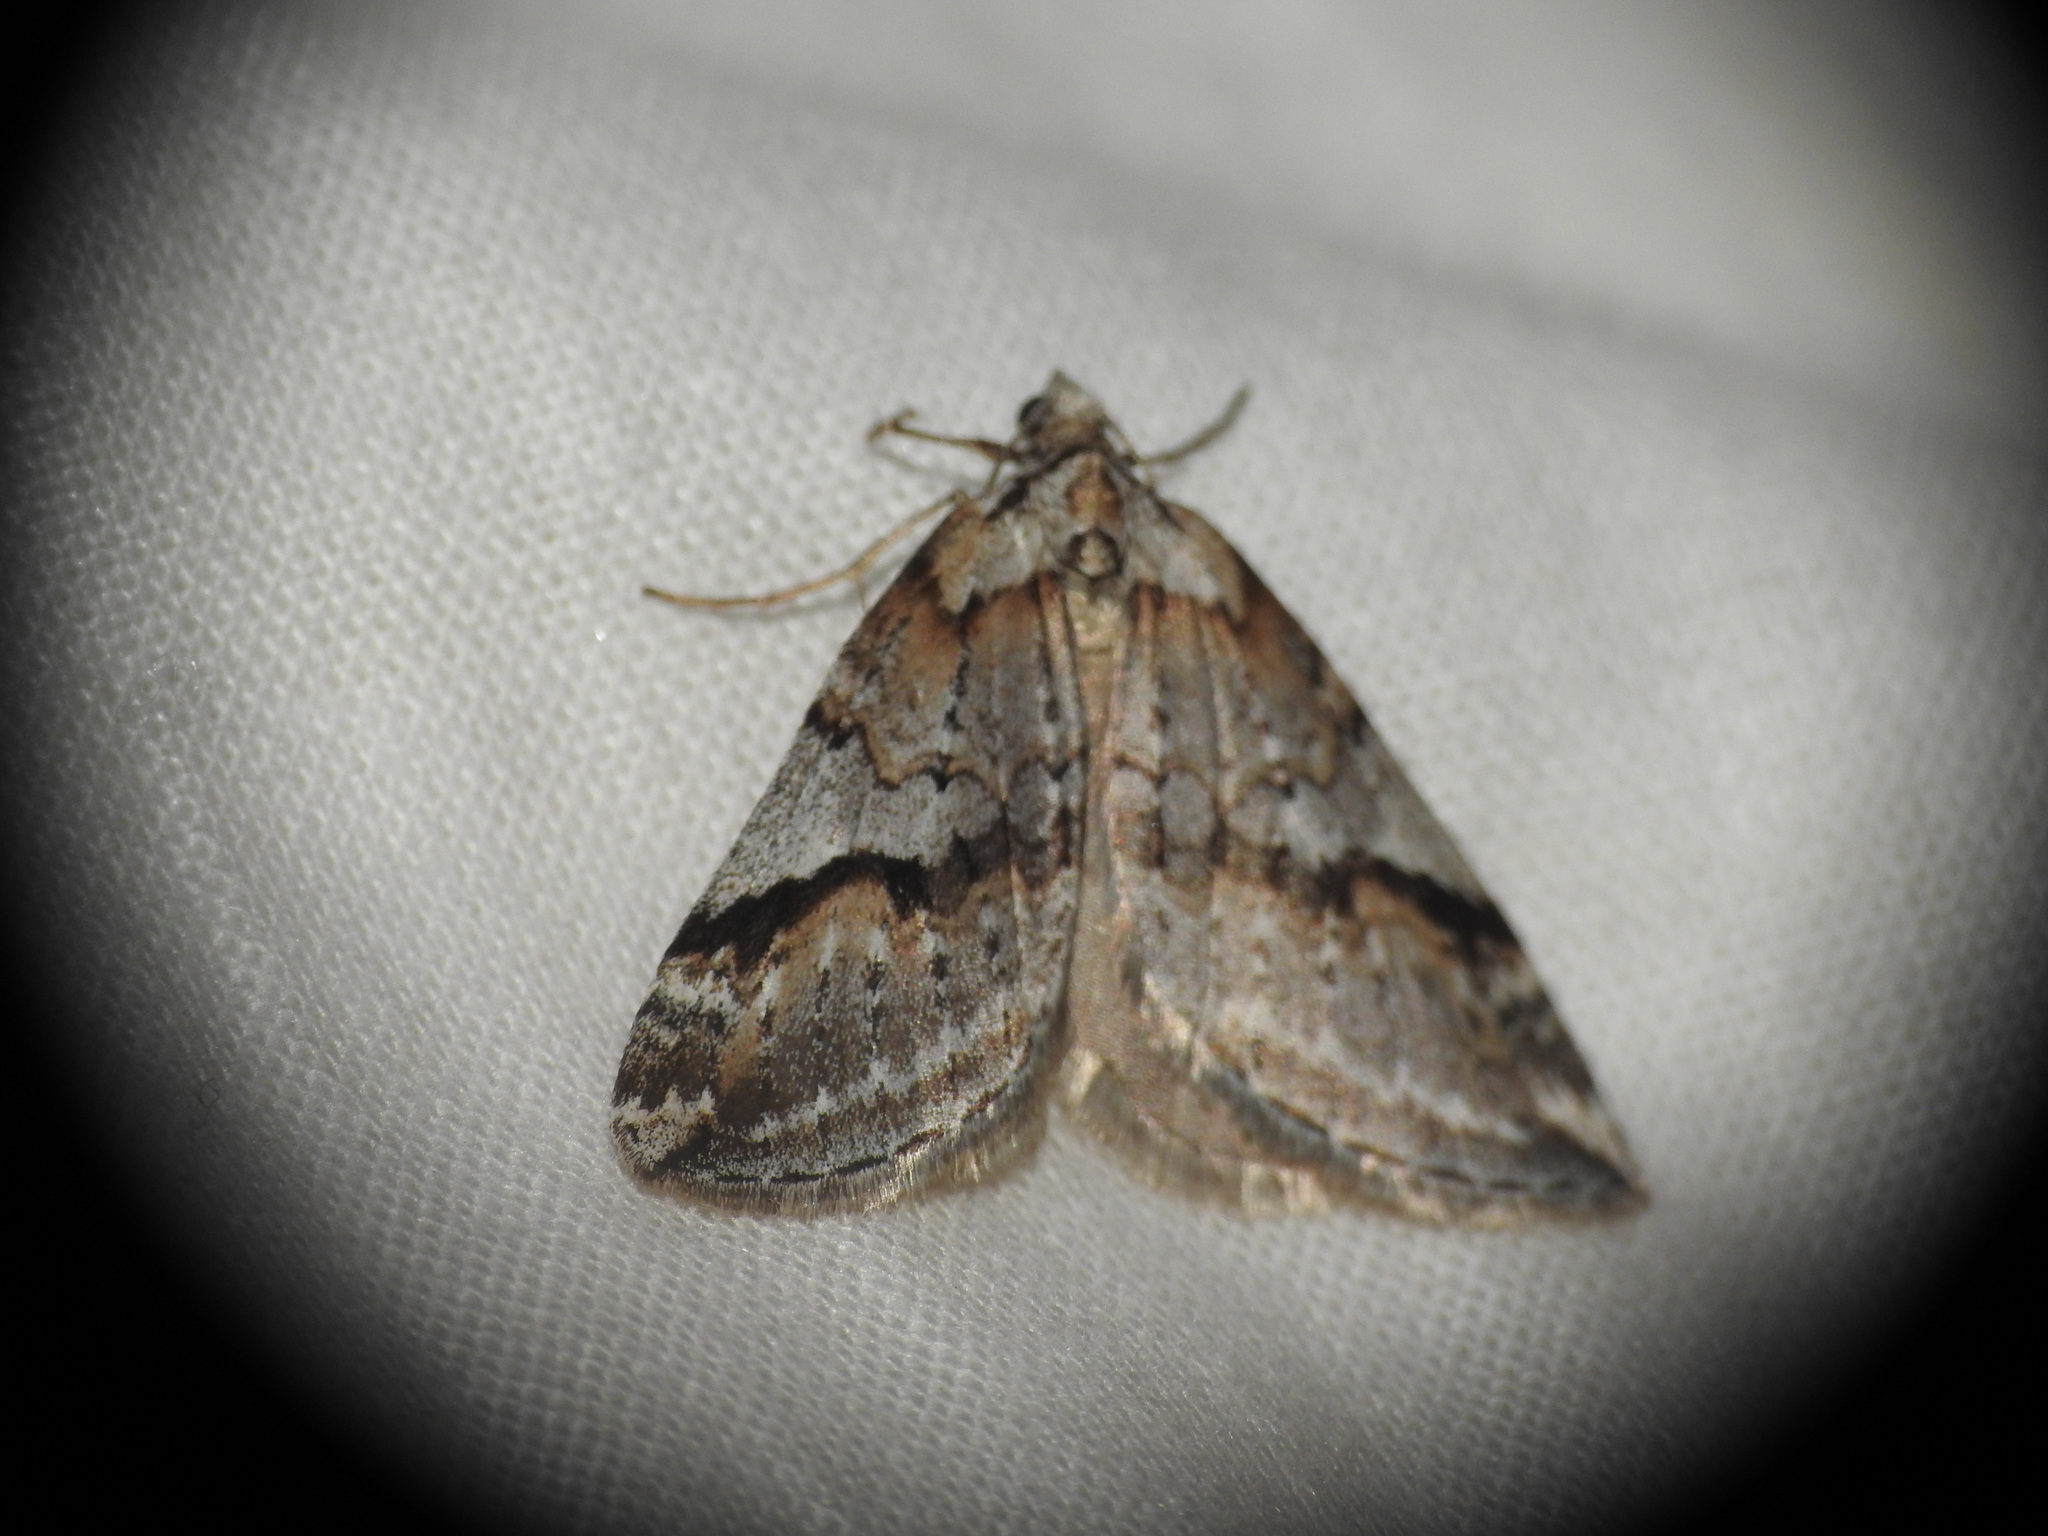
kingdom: Animalia
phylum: Arthropoda
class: Insecta
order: Lepidoptera
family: Geometridae
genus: Chesias
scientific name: Chesias rufata
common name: Broom-tip
